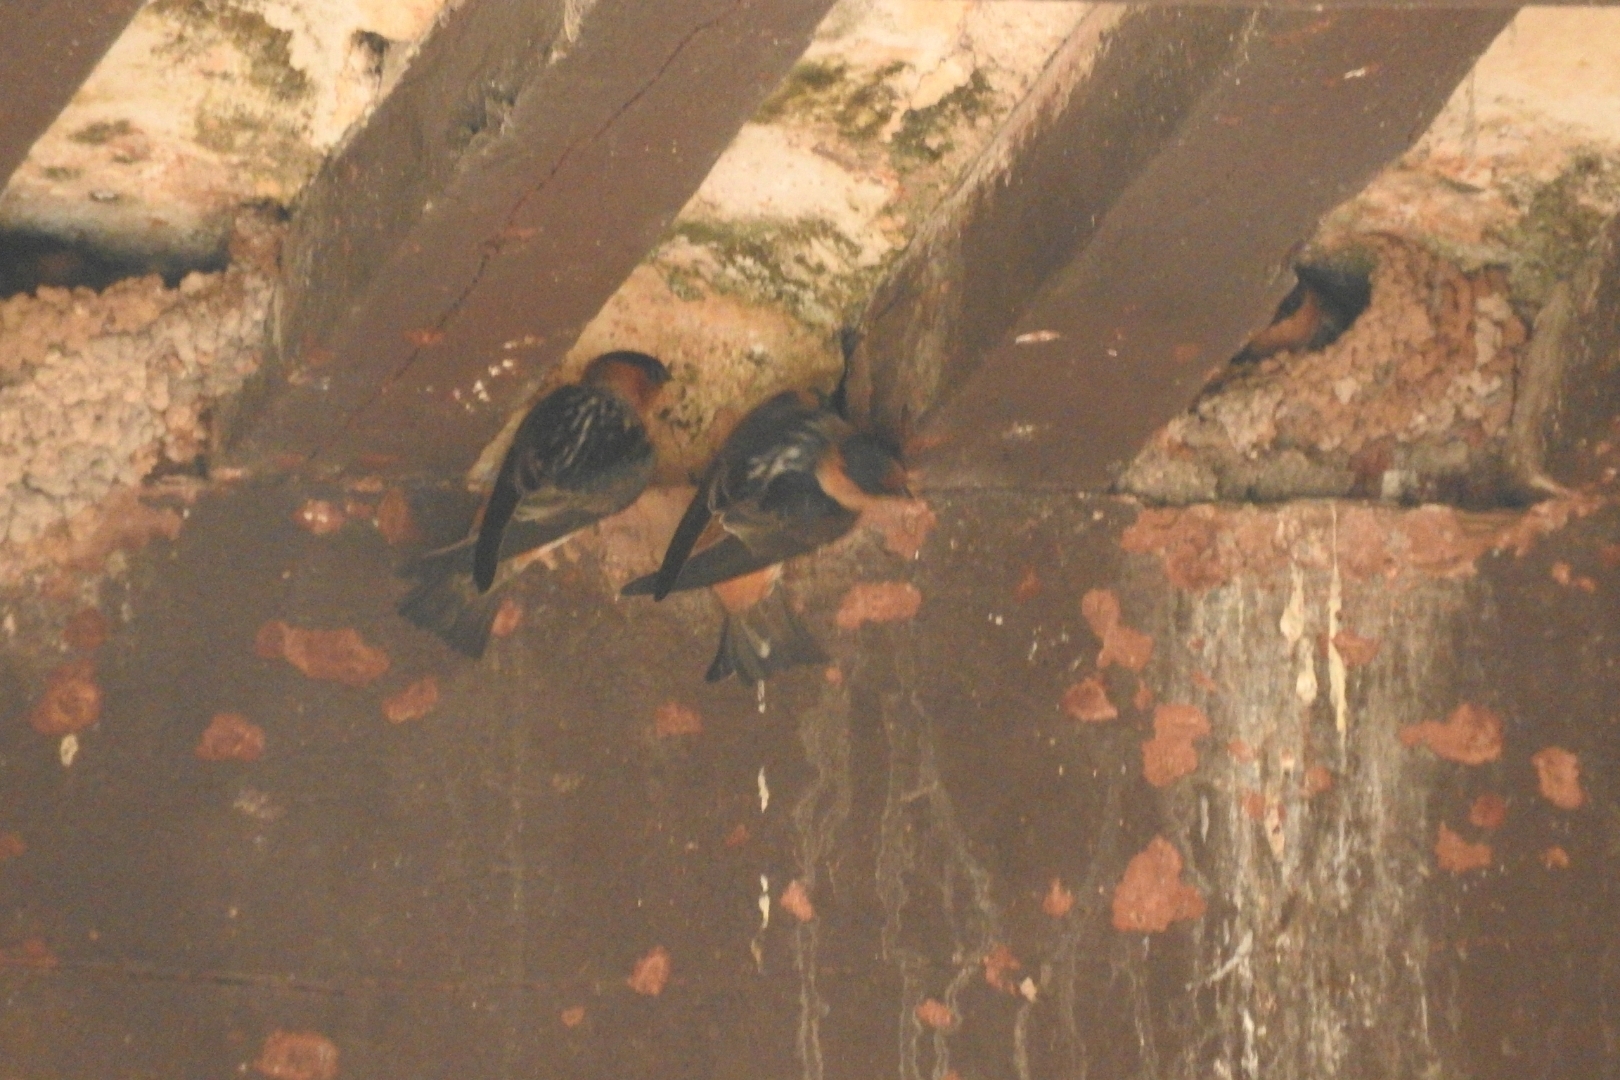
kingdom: Animalia
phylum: Chordata
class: Aves
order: Passeriformes
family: Hirundinidae
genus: Petrochelidon
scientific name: Petrochelidon fulva
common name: Cave swallow
